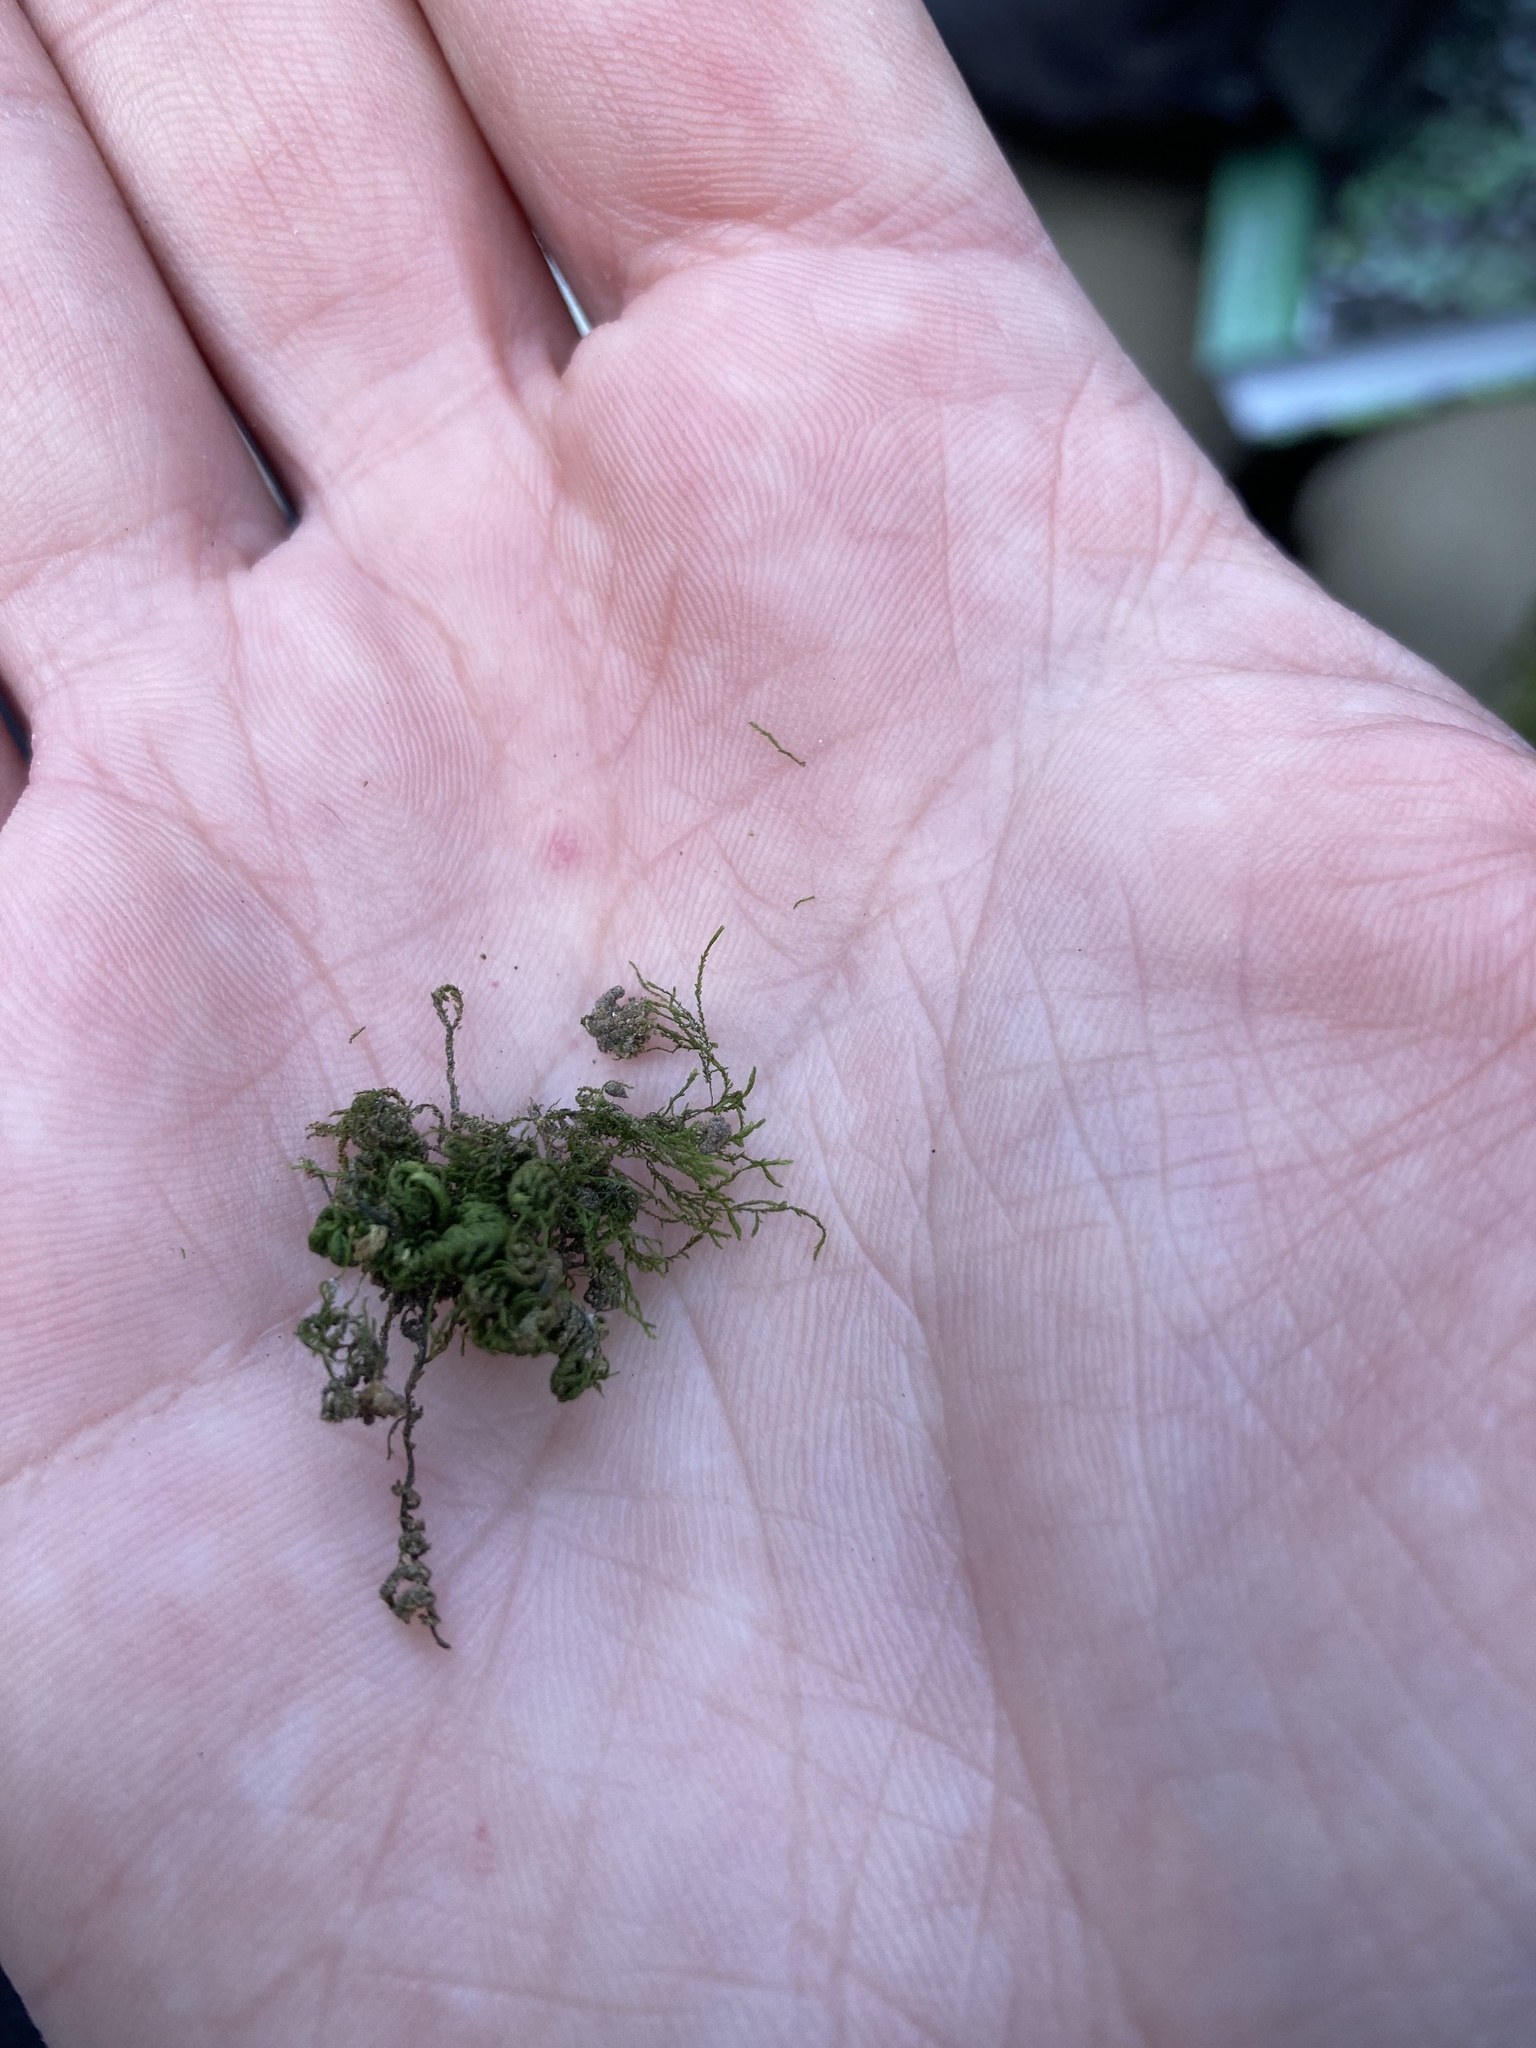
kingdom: Plantae
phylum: Bryophyta
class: Bryopsida
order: Hypnales
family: Neckeraceae
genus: Leptodon
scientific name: Leptodon smithii
